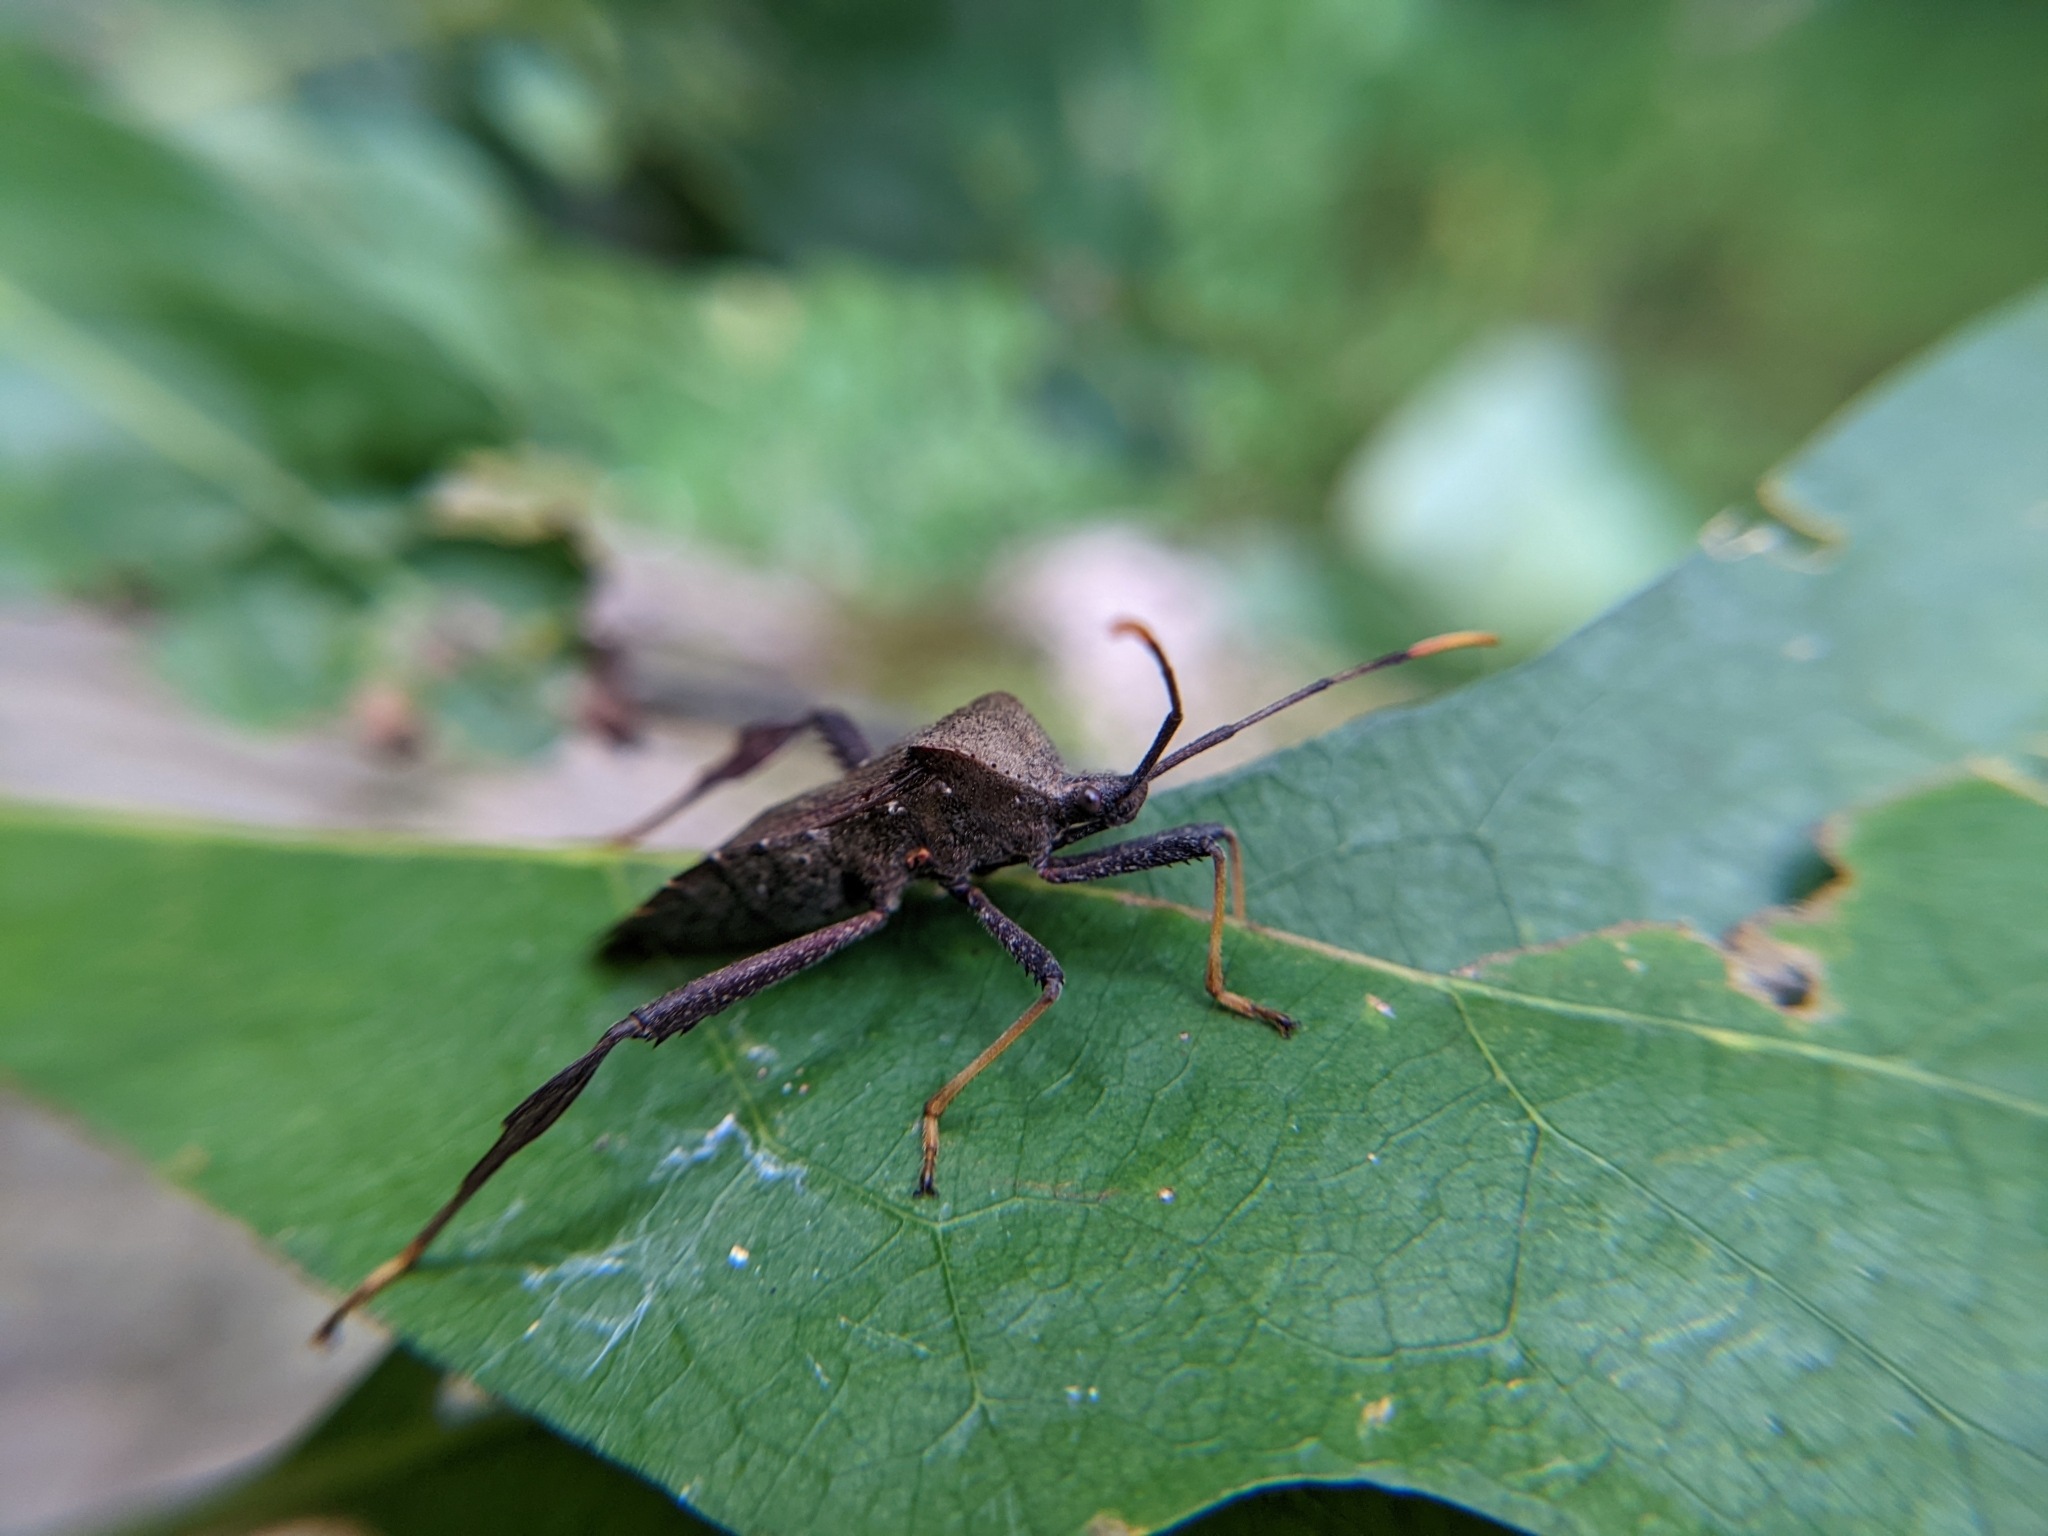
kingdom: Animalia
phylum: Arthropoda
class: Insecta
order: Hemiptera
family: Coreidae
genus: Acanthocephala
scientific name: Acanthocephala terminalis
